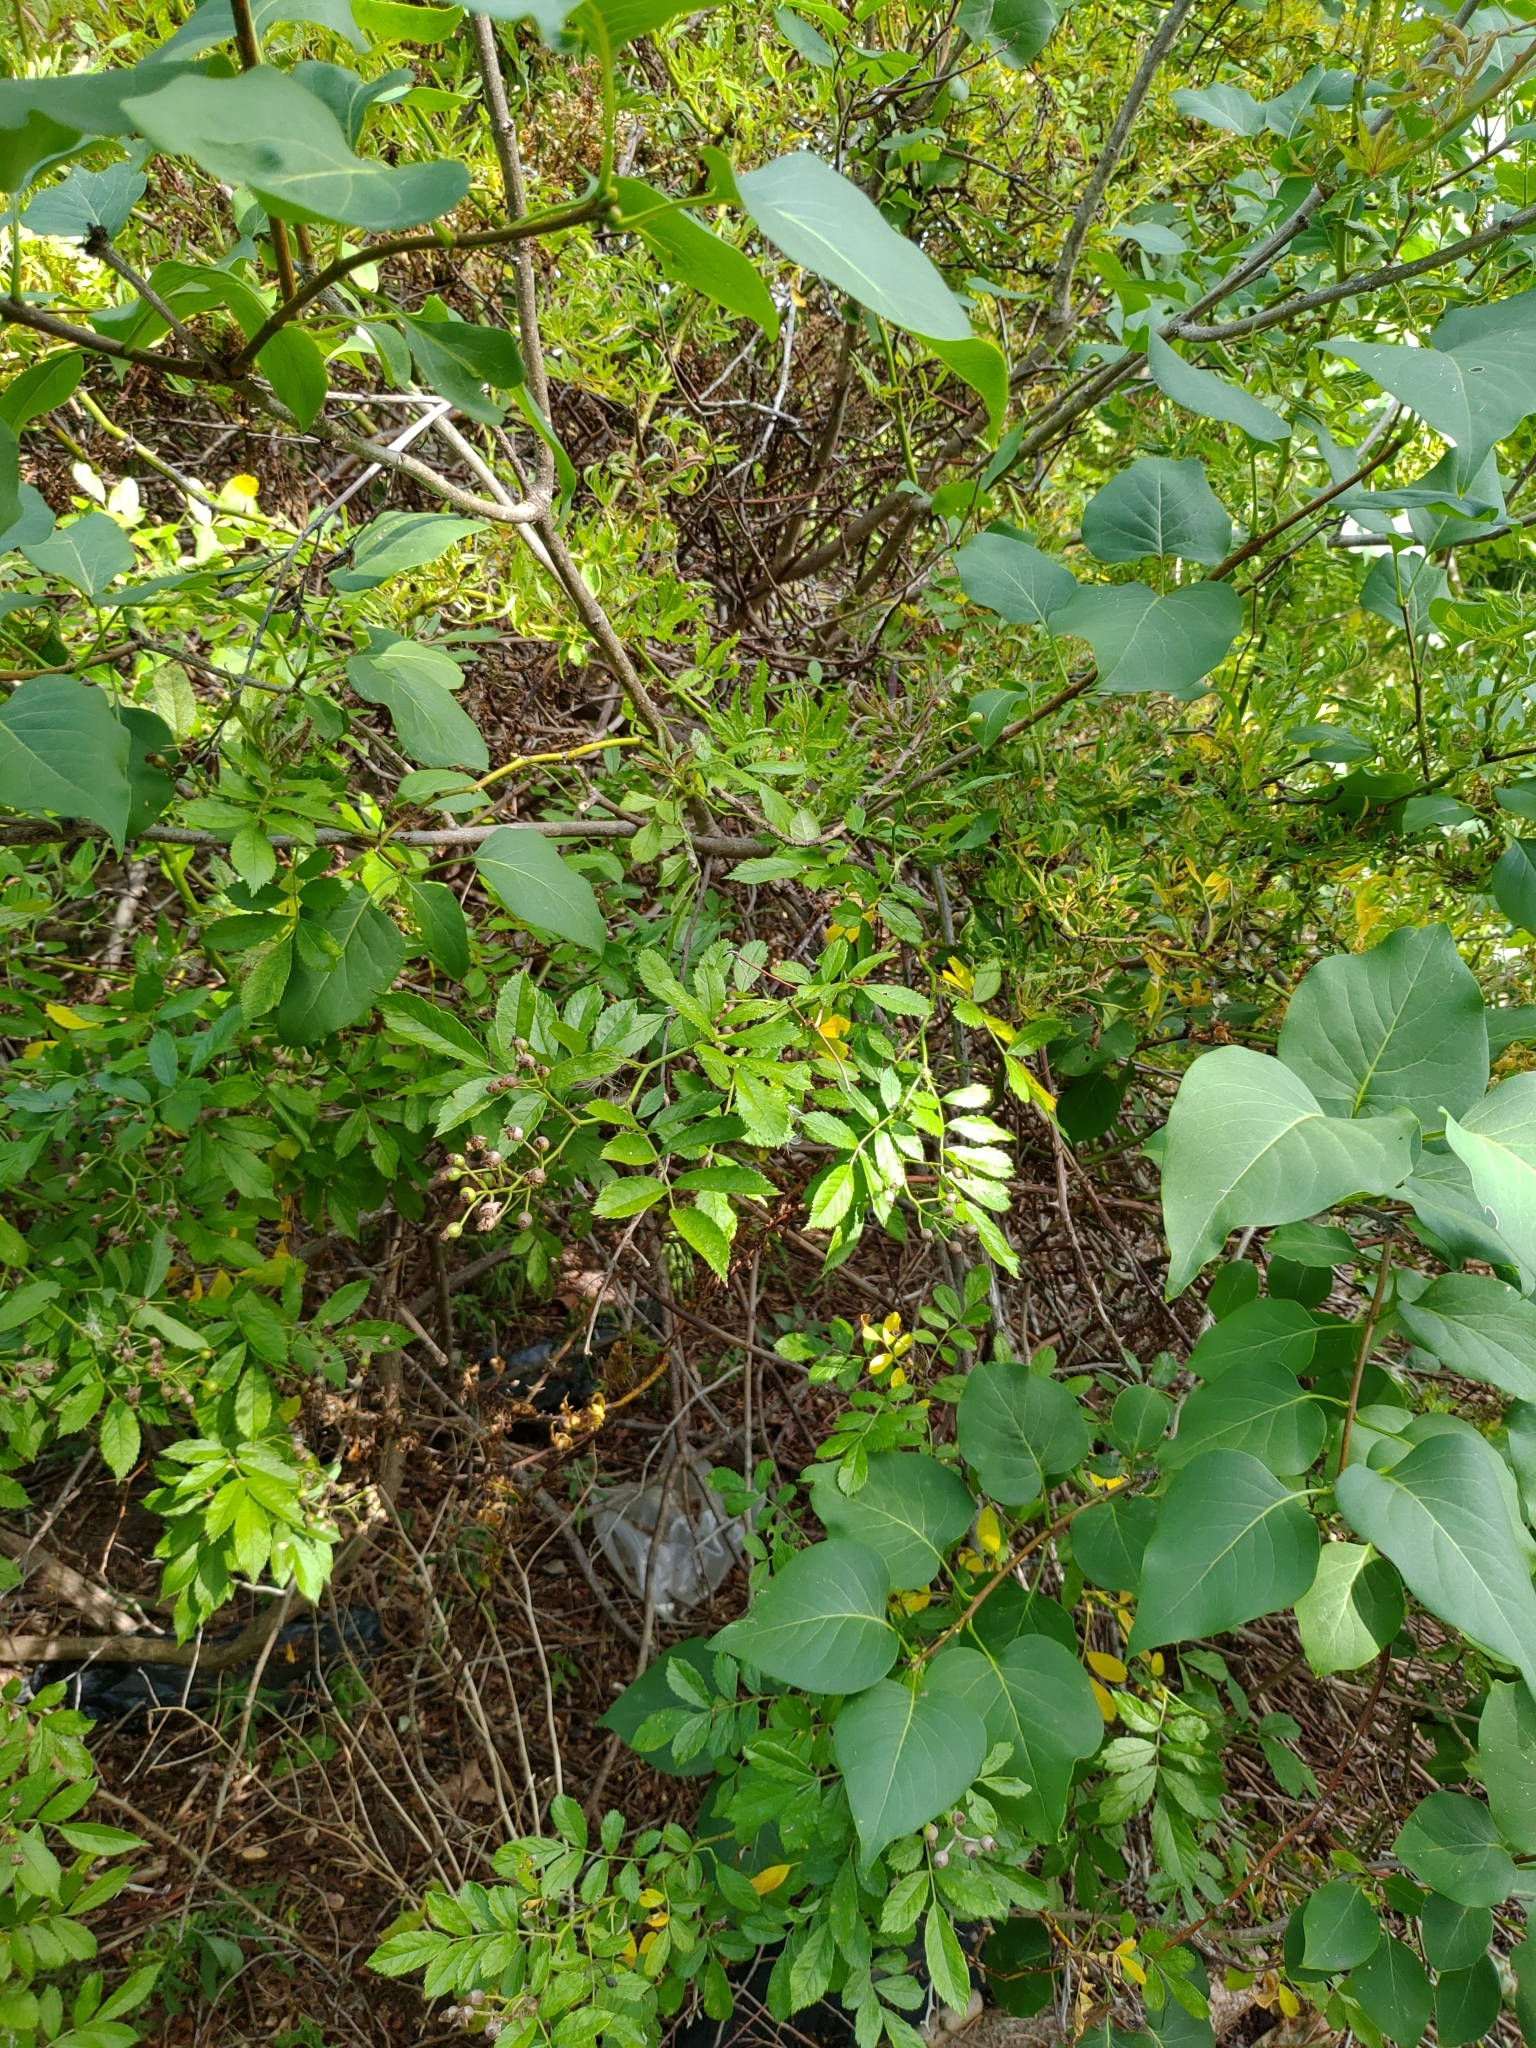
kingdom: Plantae
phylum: Tracheophyta
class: Magnoliopsida
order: Rosales
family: Rosaceae
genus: Rosa
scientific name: Rosa multiflora
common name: Multiflora rose
